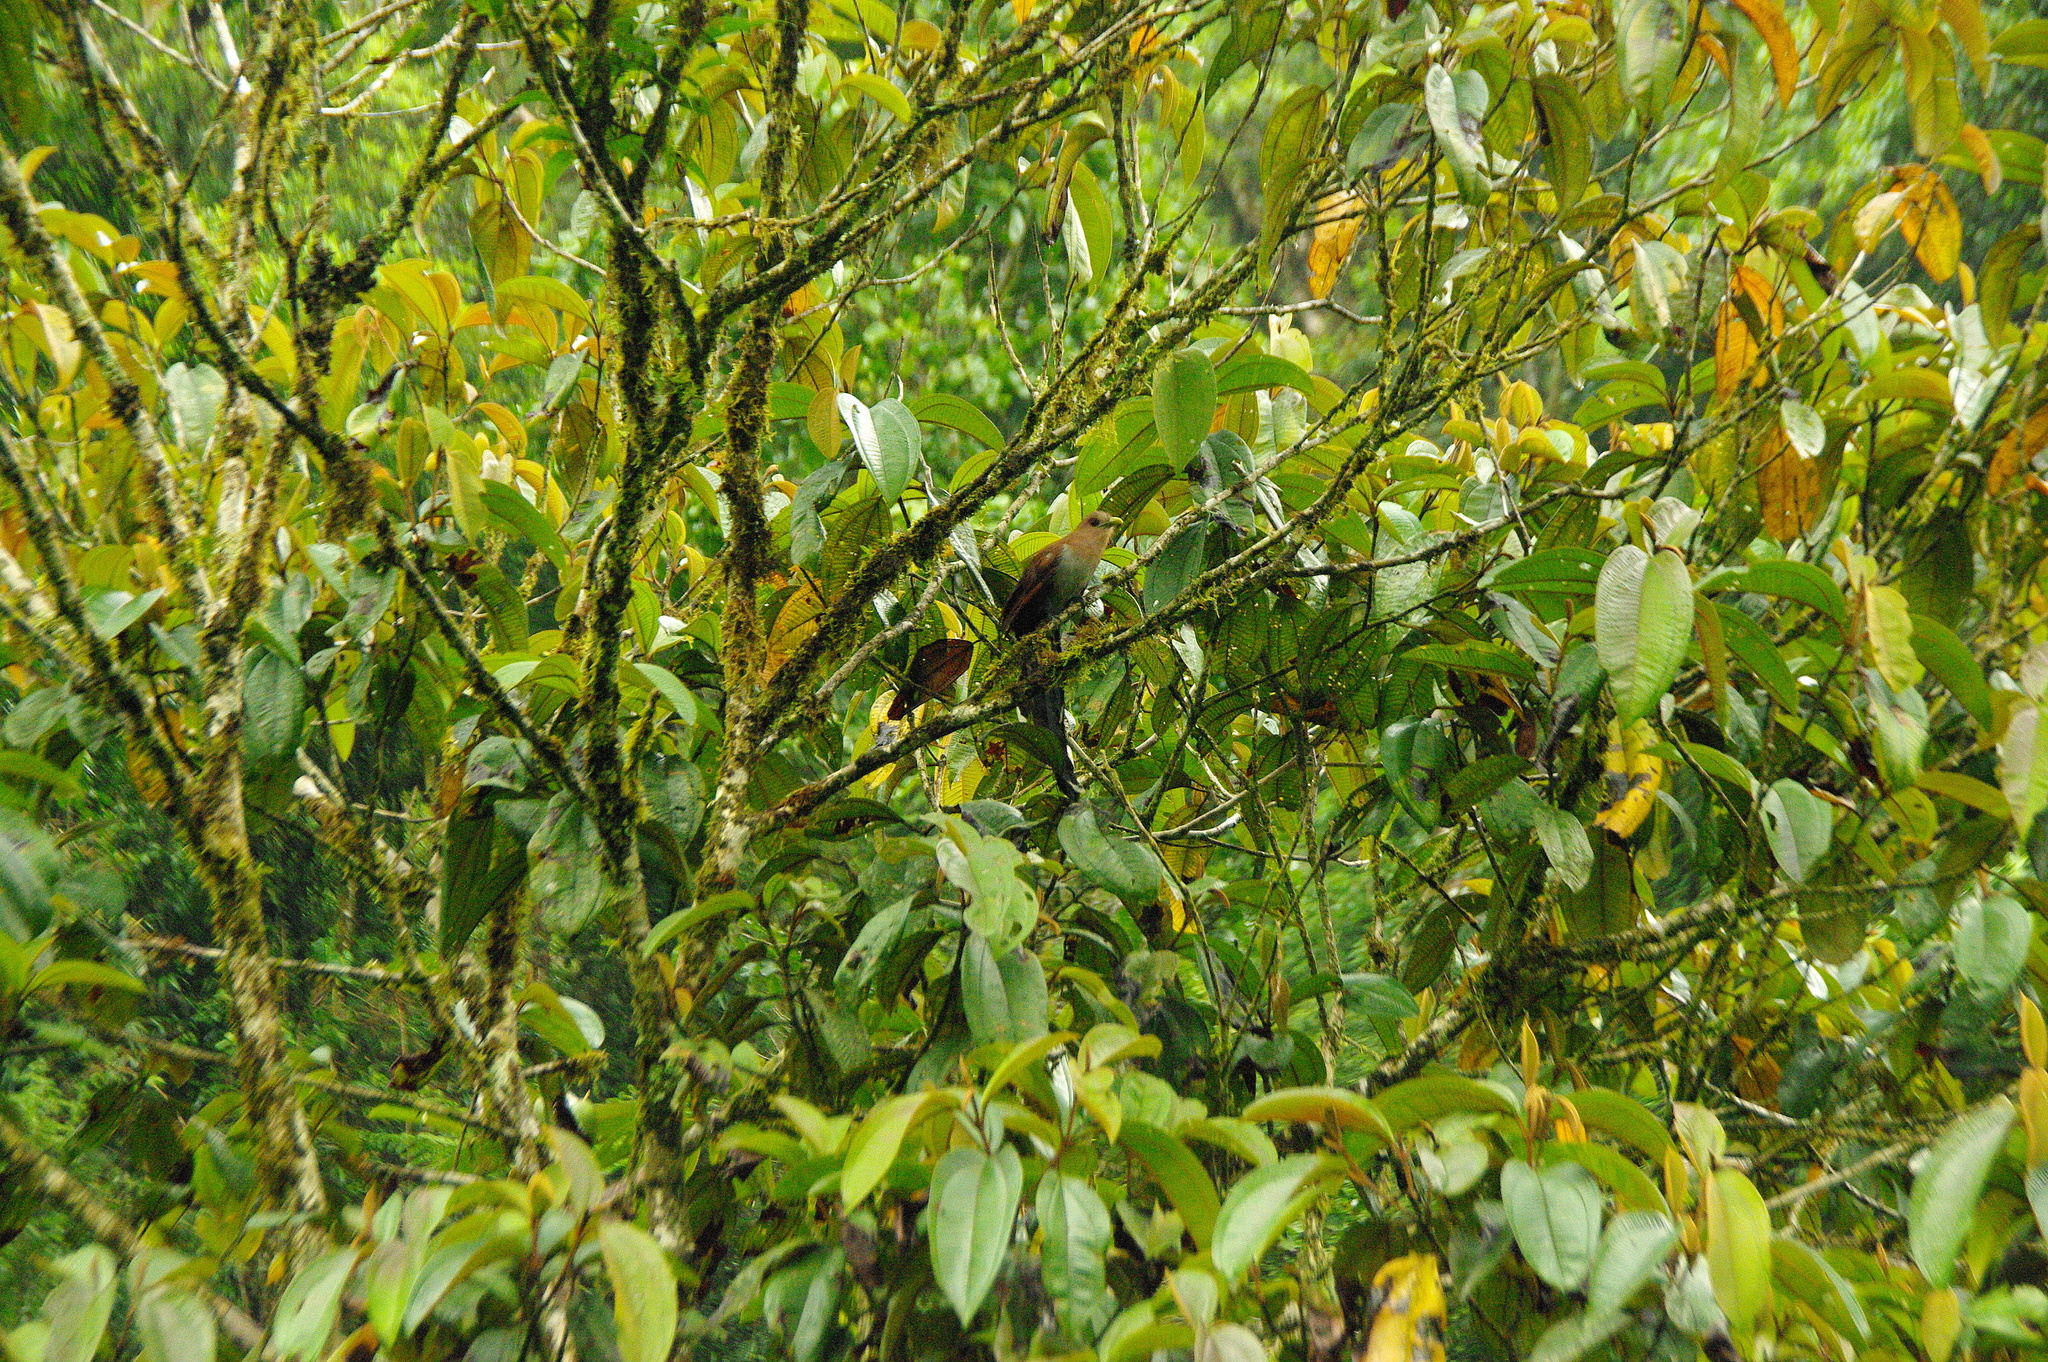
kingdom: Animalia
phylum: Chordata
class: Aves
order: Cuculiformes
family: Cuculidae
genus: Piaya
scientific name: Piaya cayana
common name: Squirrel cuckoo
